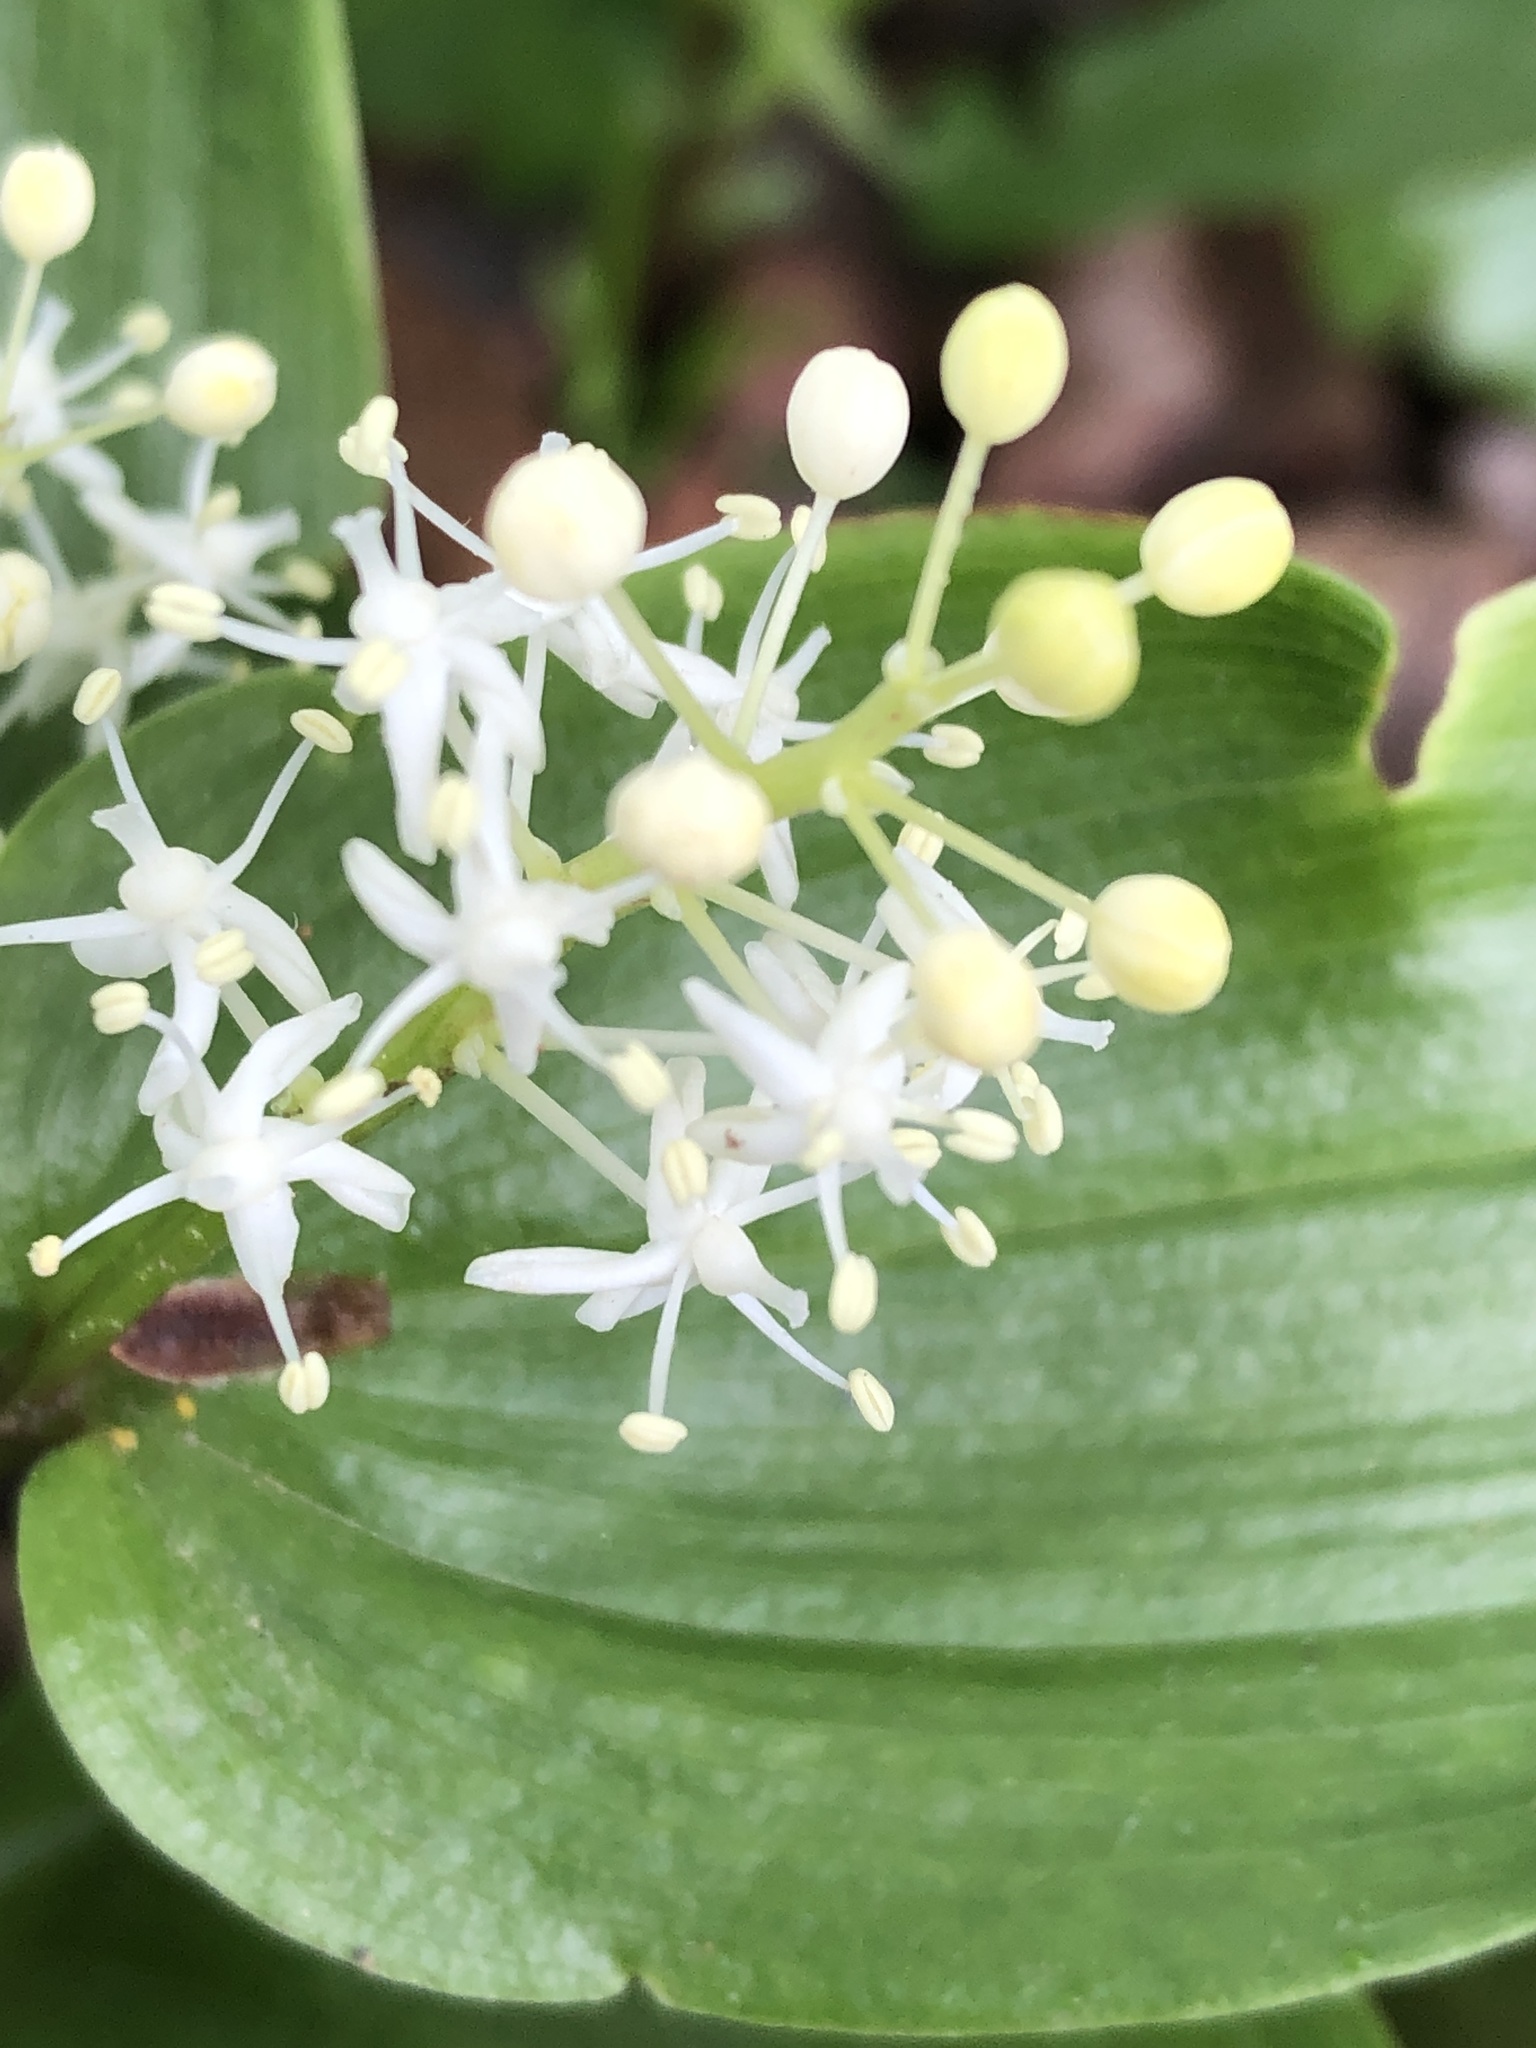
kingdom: Plantae
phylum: Tracheophyta
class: Liliopsida
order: Asparagales
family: Asparagaceae
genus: Maianthemum
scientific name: Maianthemum canadense
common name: False lily-of-the-valley
